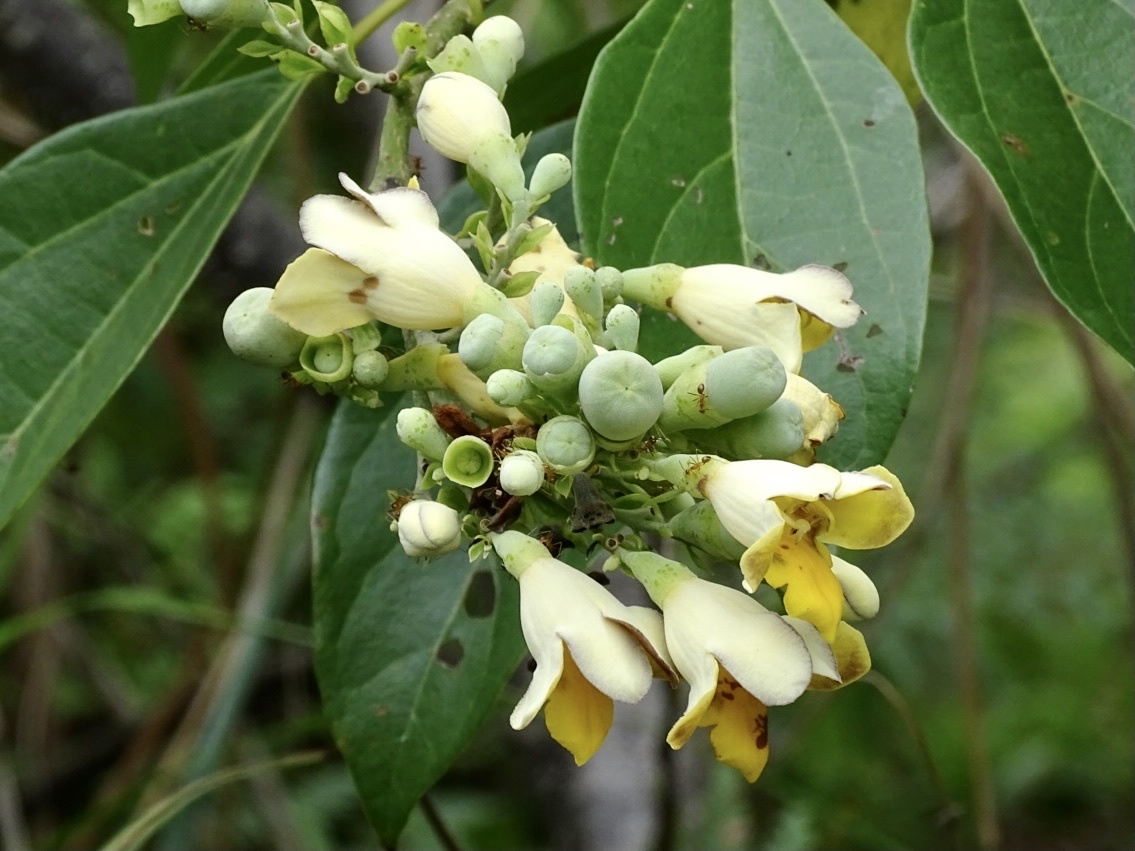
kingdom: Plantae
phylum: Tracheophyta
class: Magnoliopsida
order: Lamiales
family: Lamiaceae
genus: Gmelina
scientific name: Gmelina chinensis
